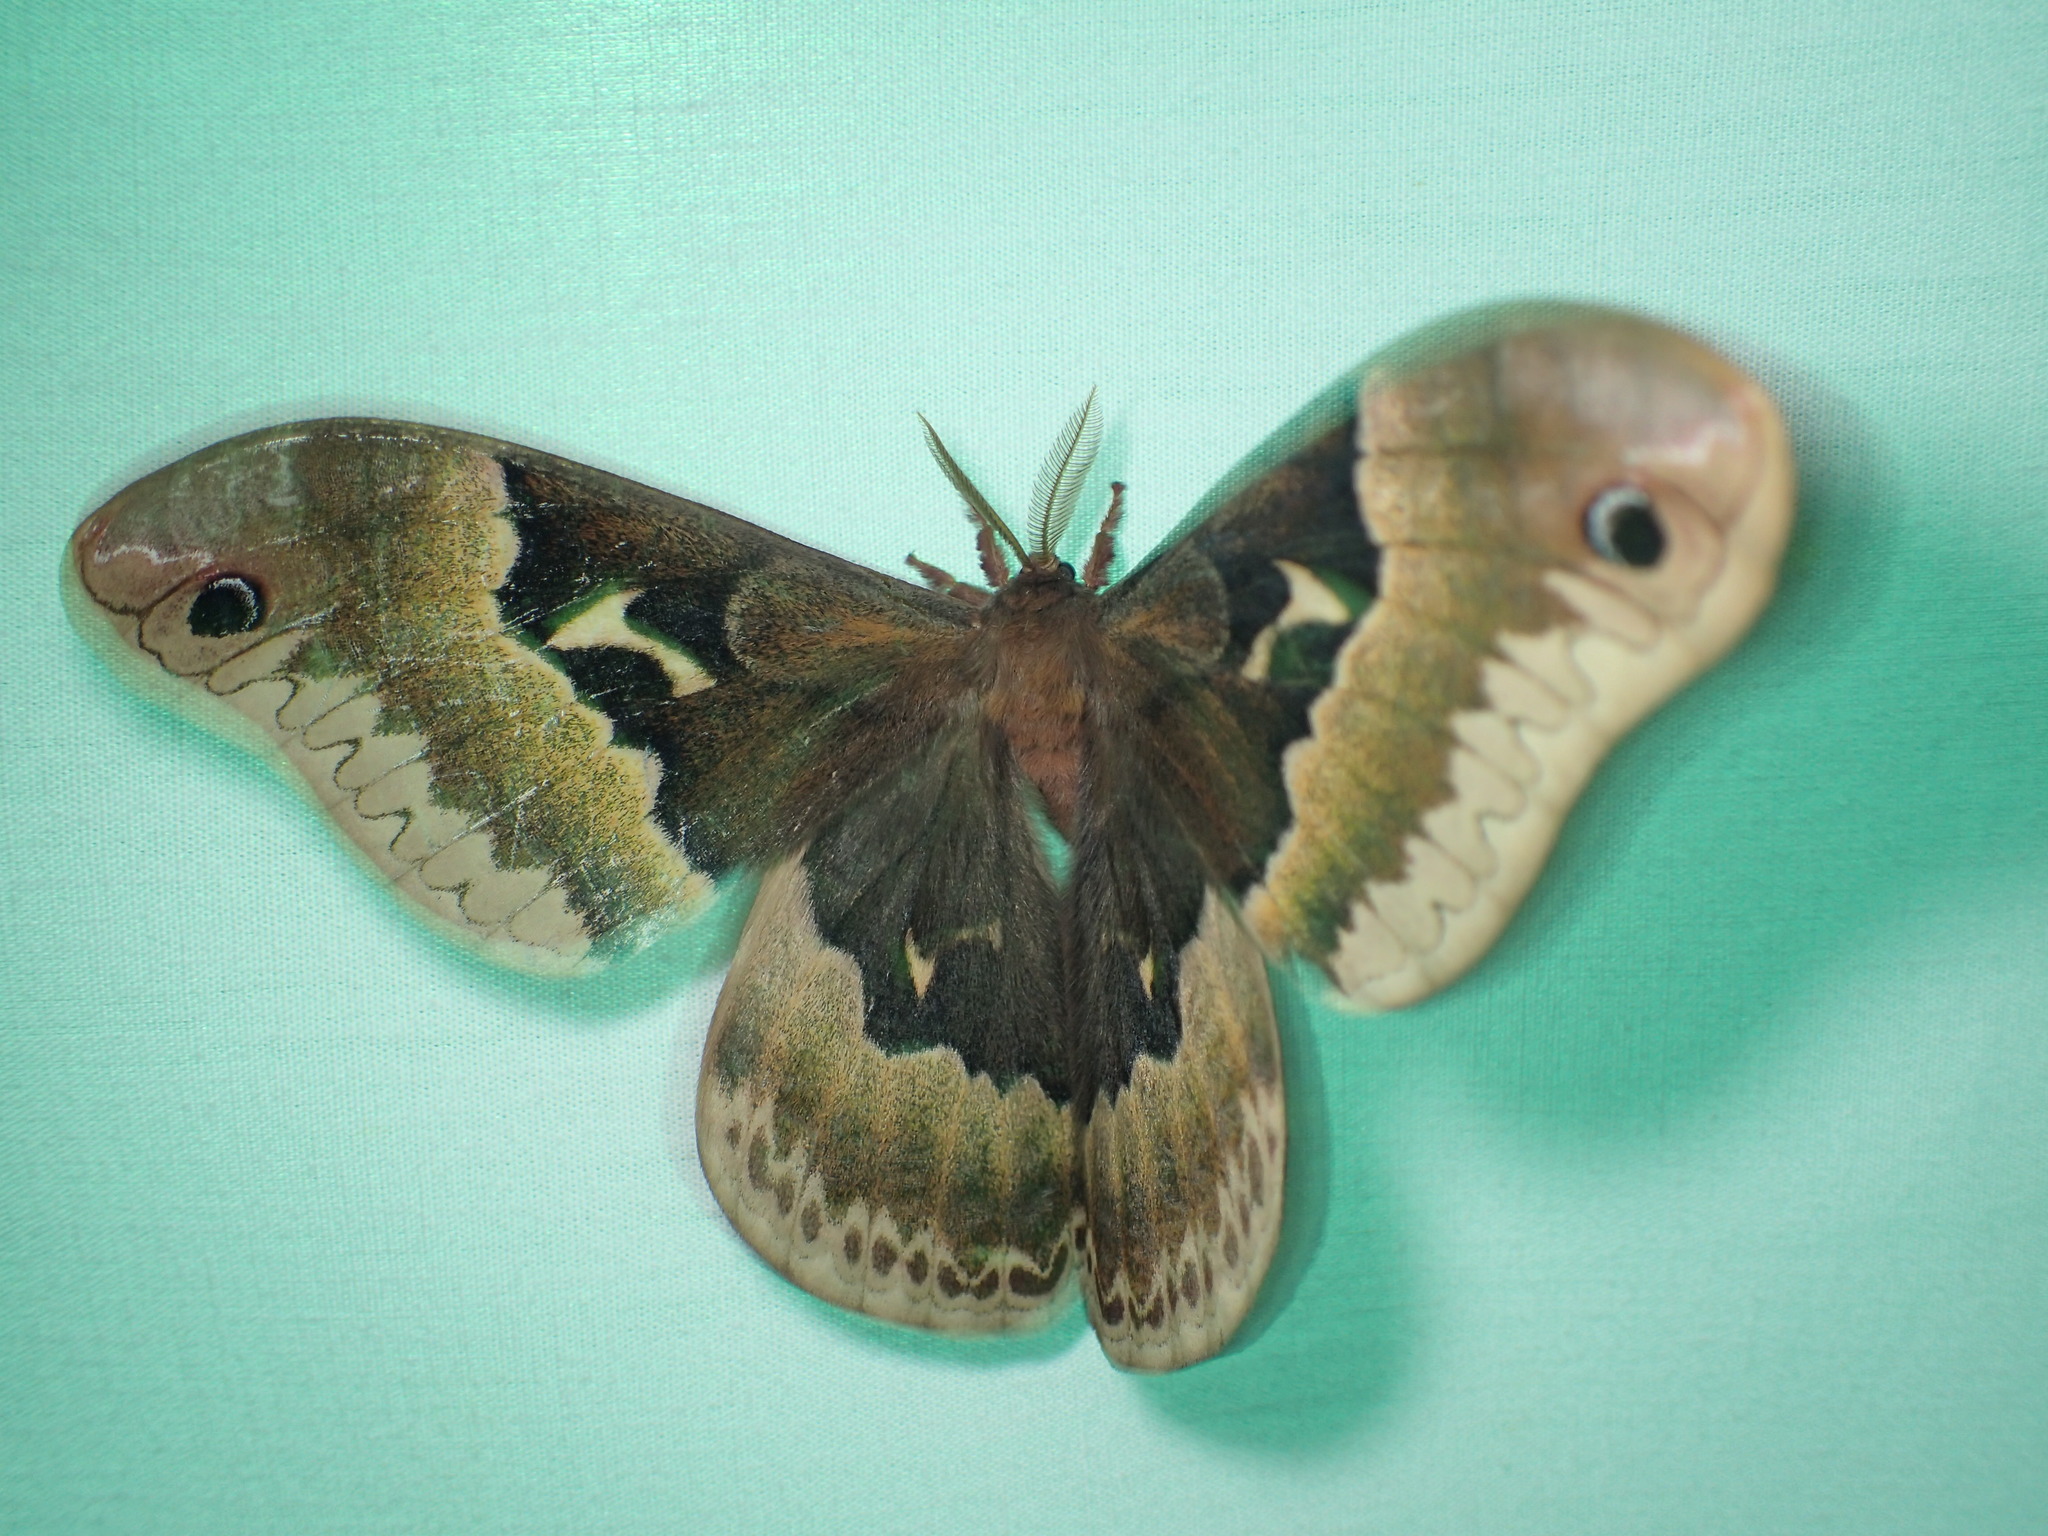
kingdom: Animalia
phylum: Arthropoda
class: Insecta
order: Lepidoptera
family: Saturniidae
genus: Callosamia
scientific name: Callosamia angulifera
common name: Tulip tree silkmoth
